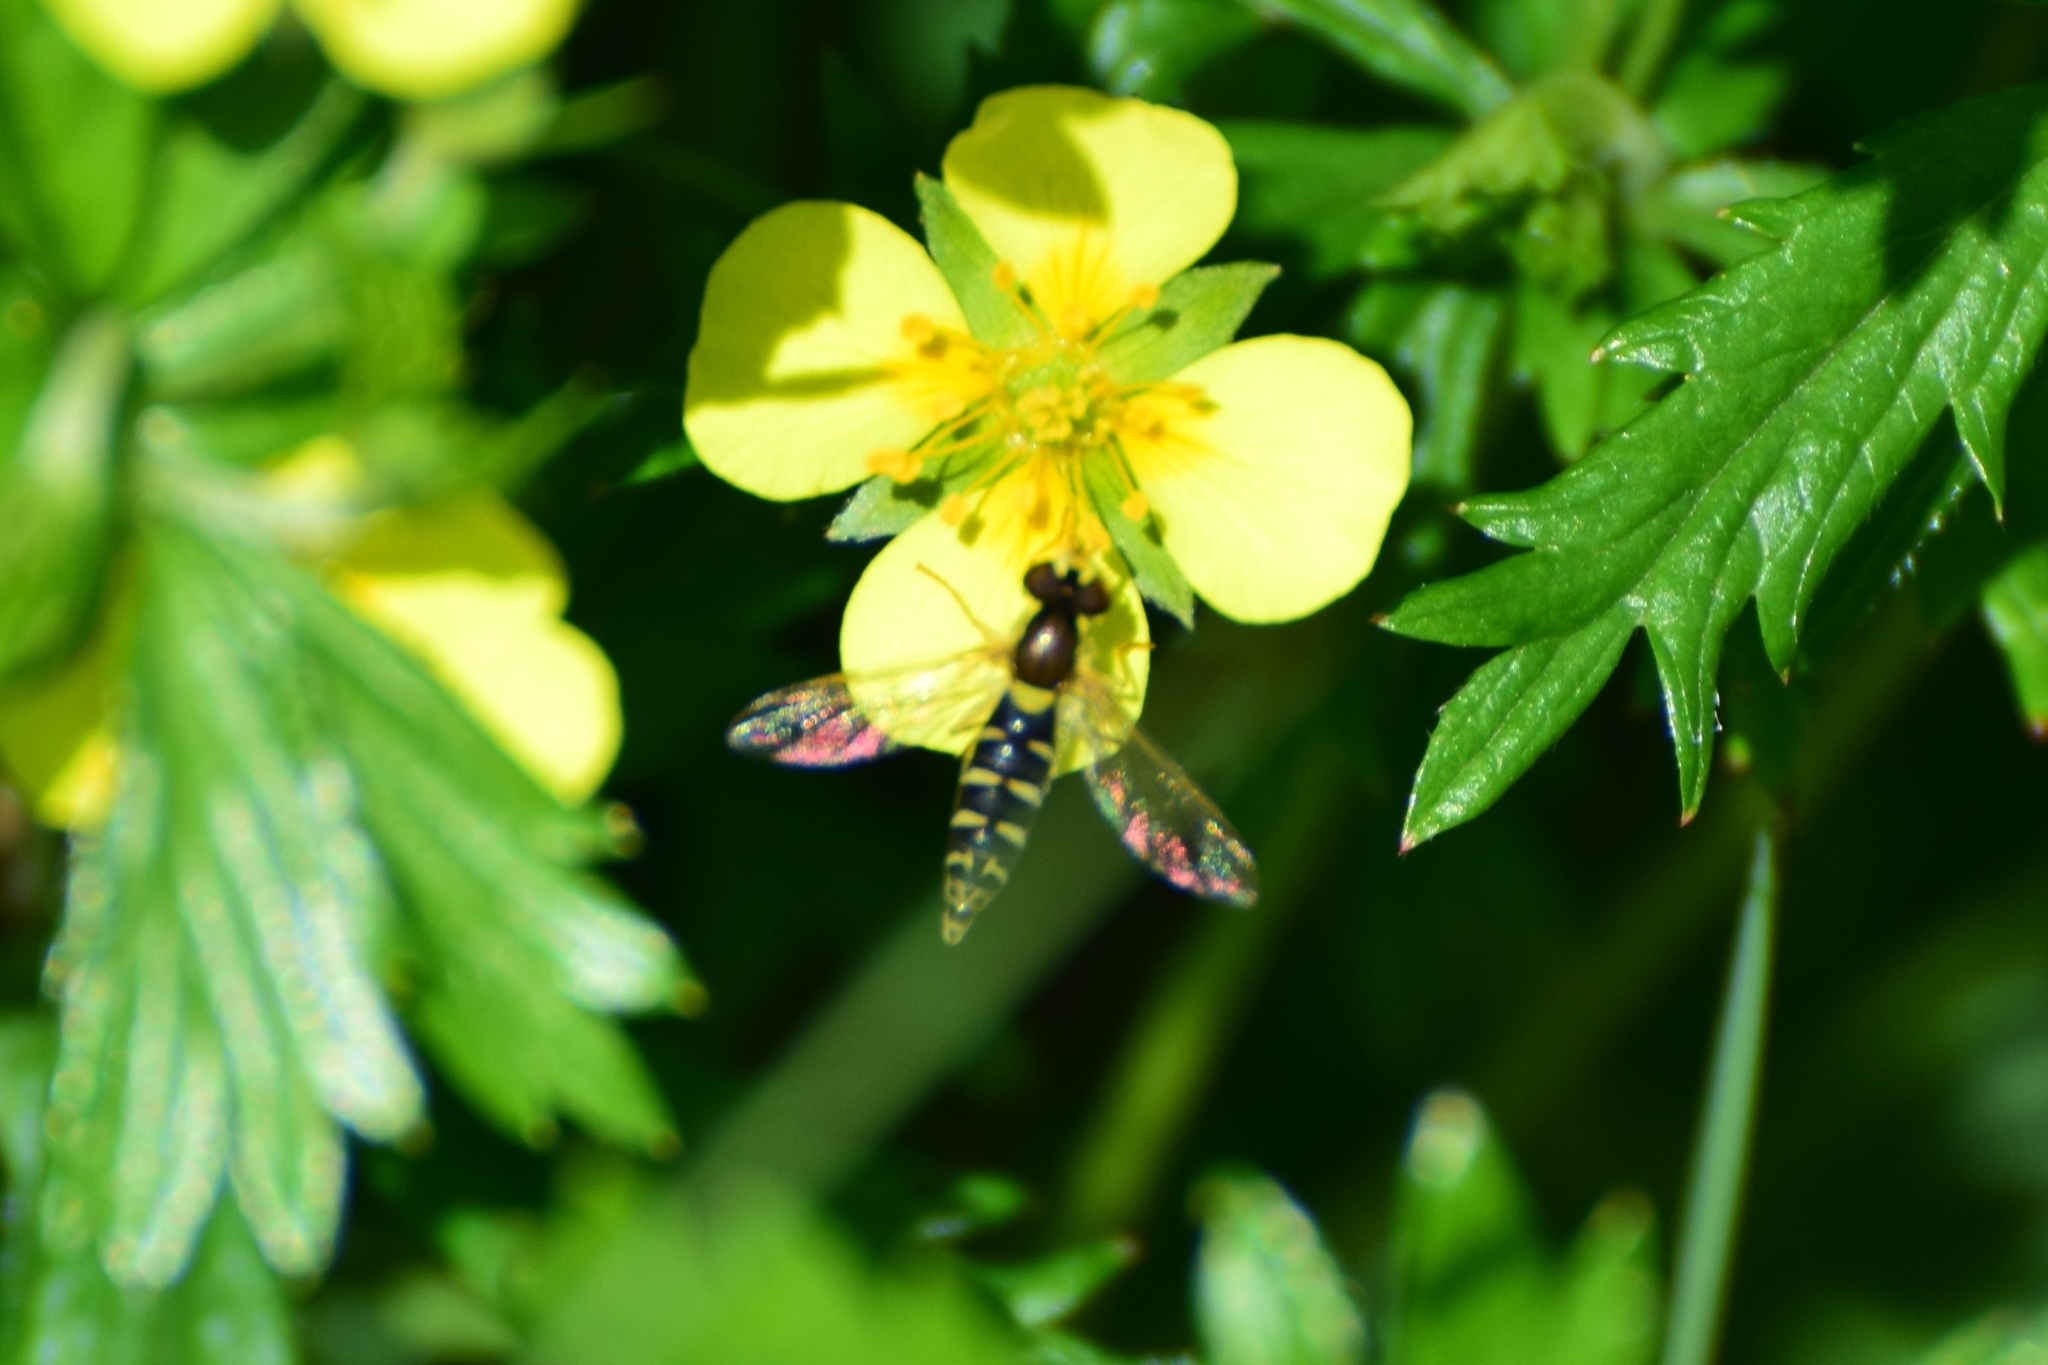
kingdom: Animalia
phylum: Arthropoda
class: Insecta
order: Diptera
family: Syrphidae
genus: Sphaerophoria
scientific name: Sphaerophoria
